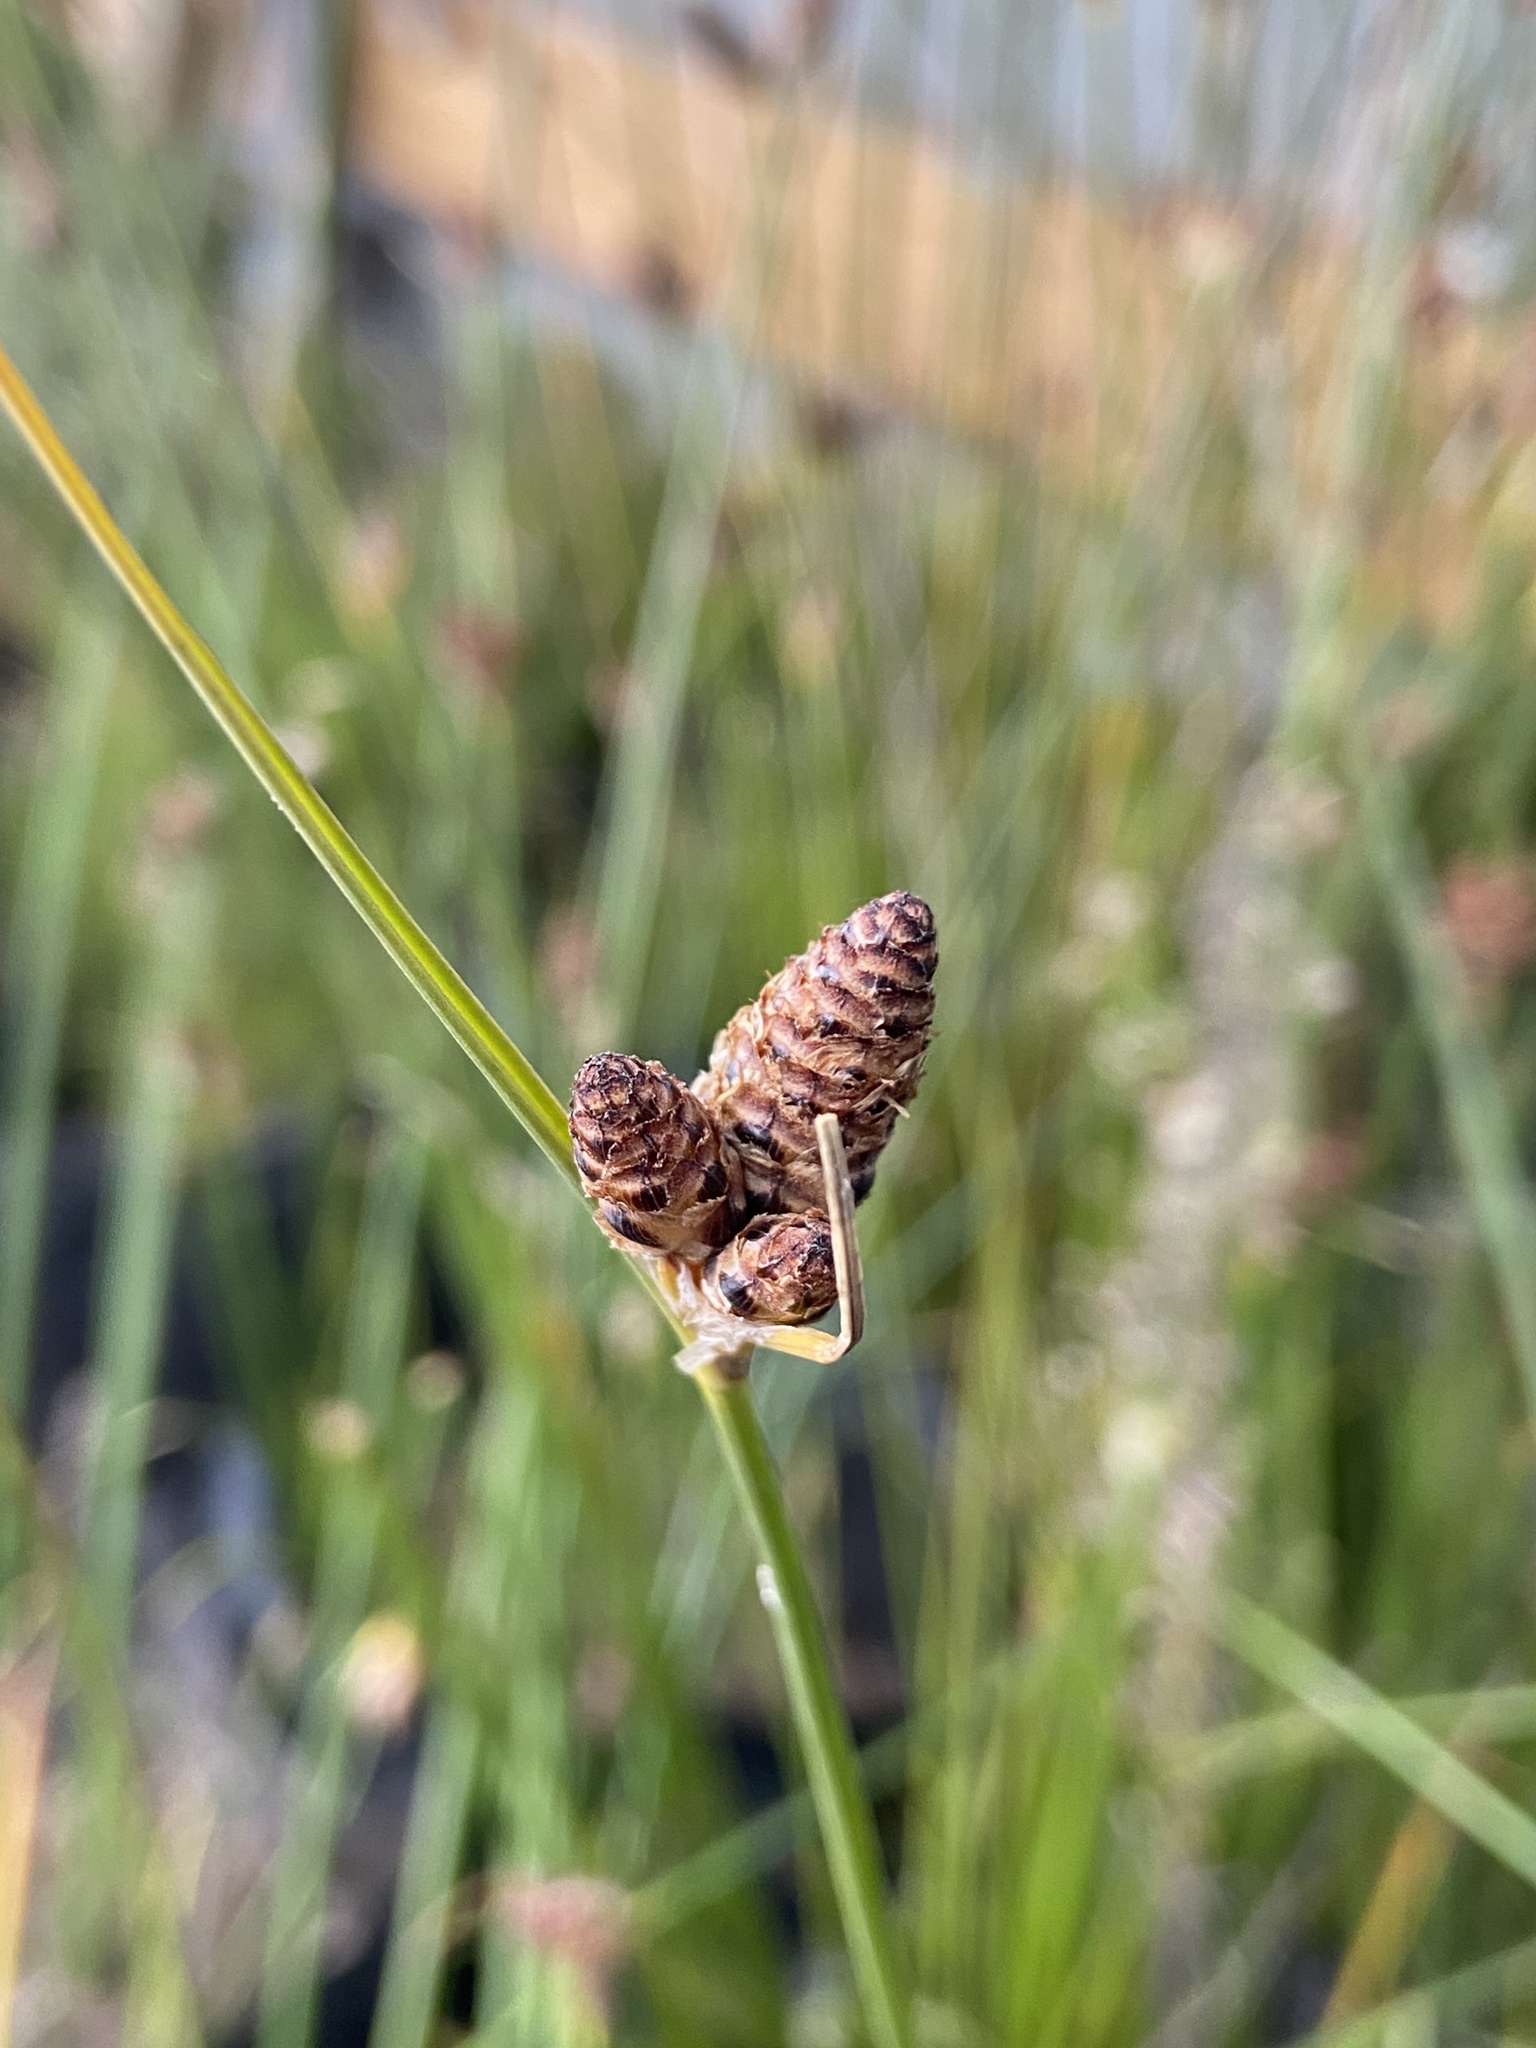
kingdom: Plantae
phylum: Tracheophyta
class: Liliopsida
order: Poales
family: Cyperaceae
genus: Hellmuthia
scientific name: Hellmuthia membranacea
